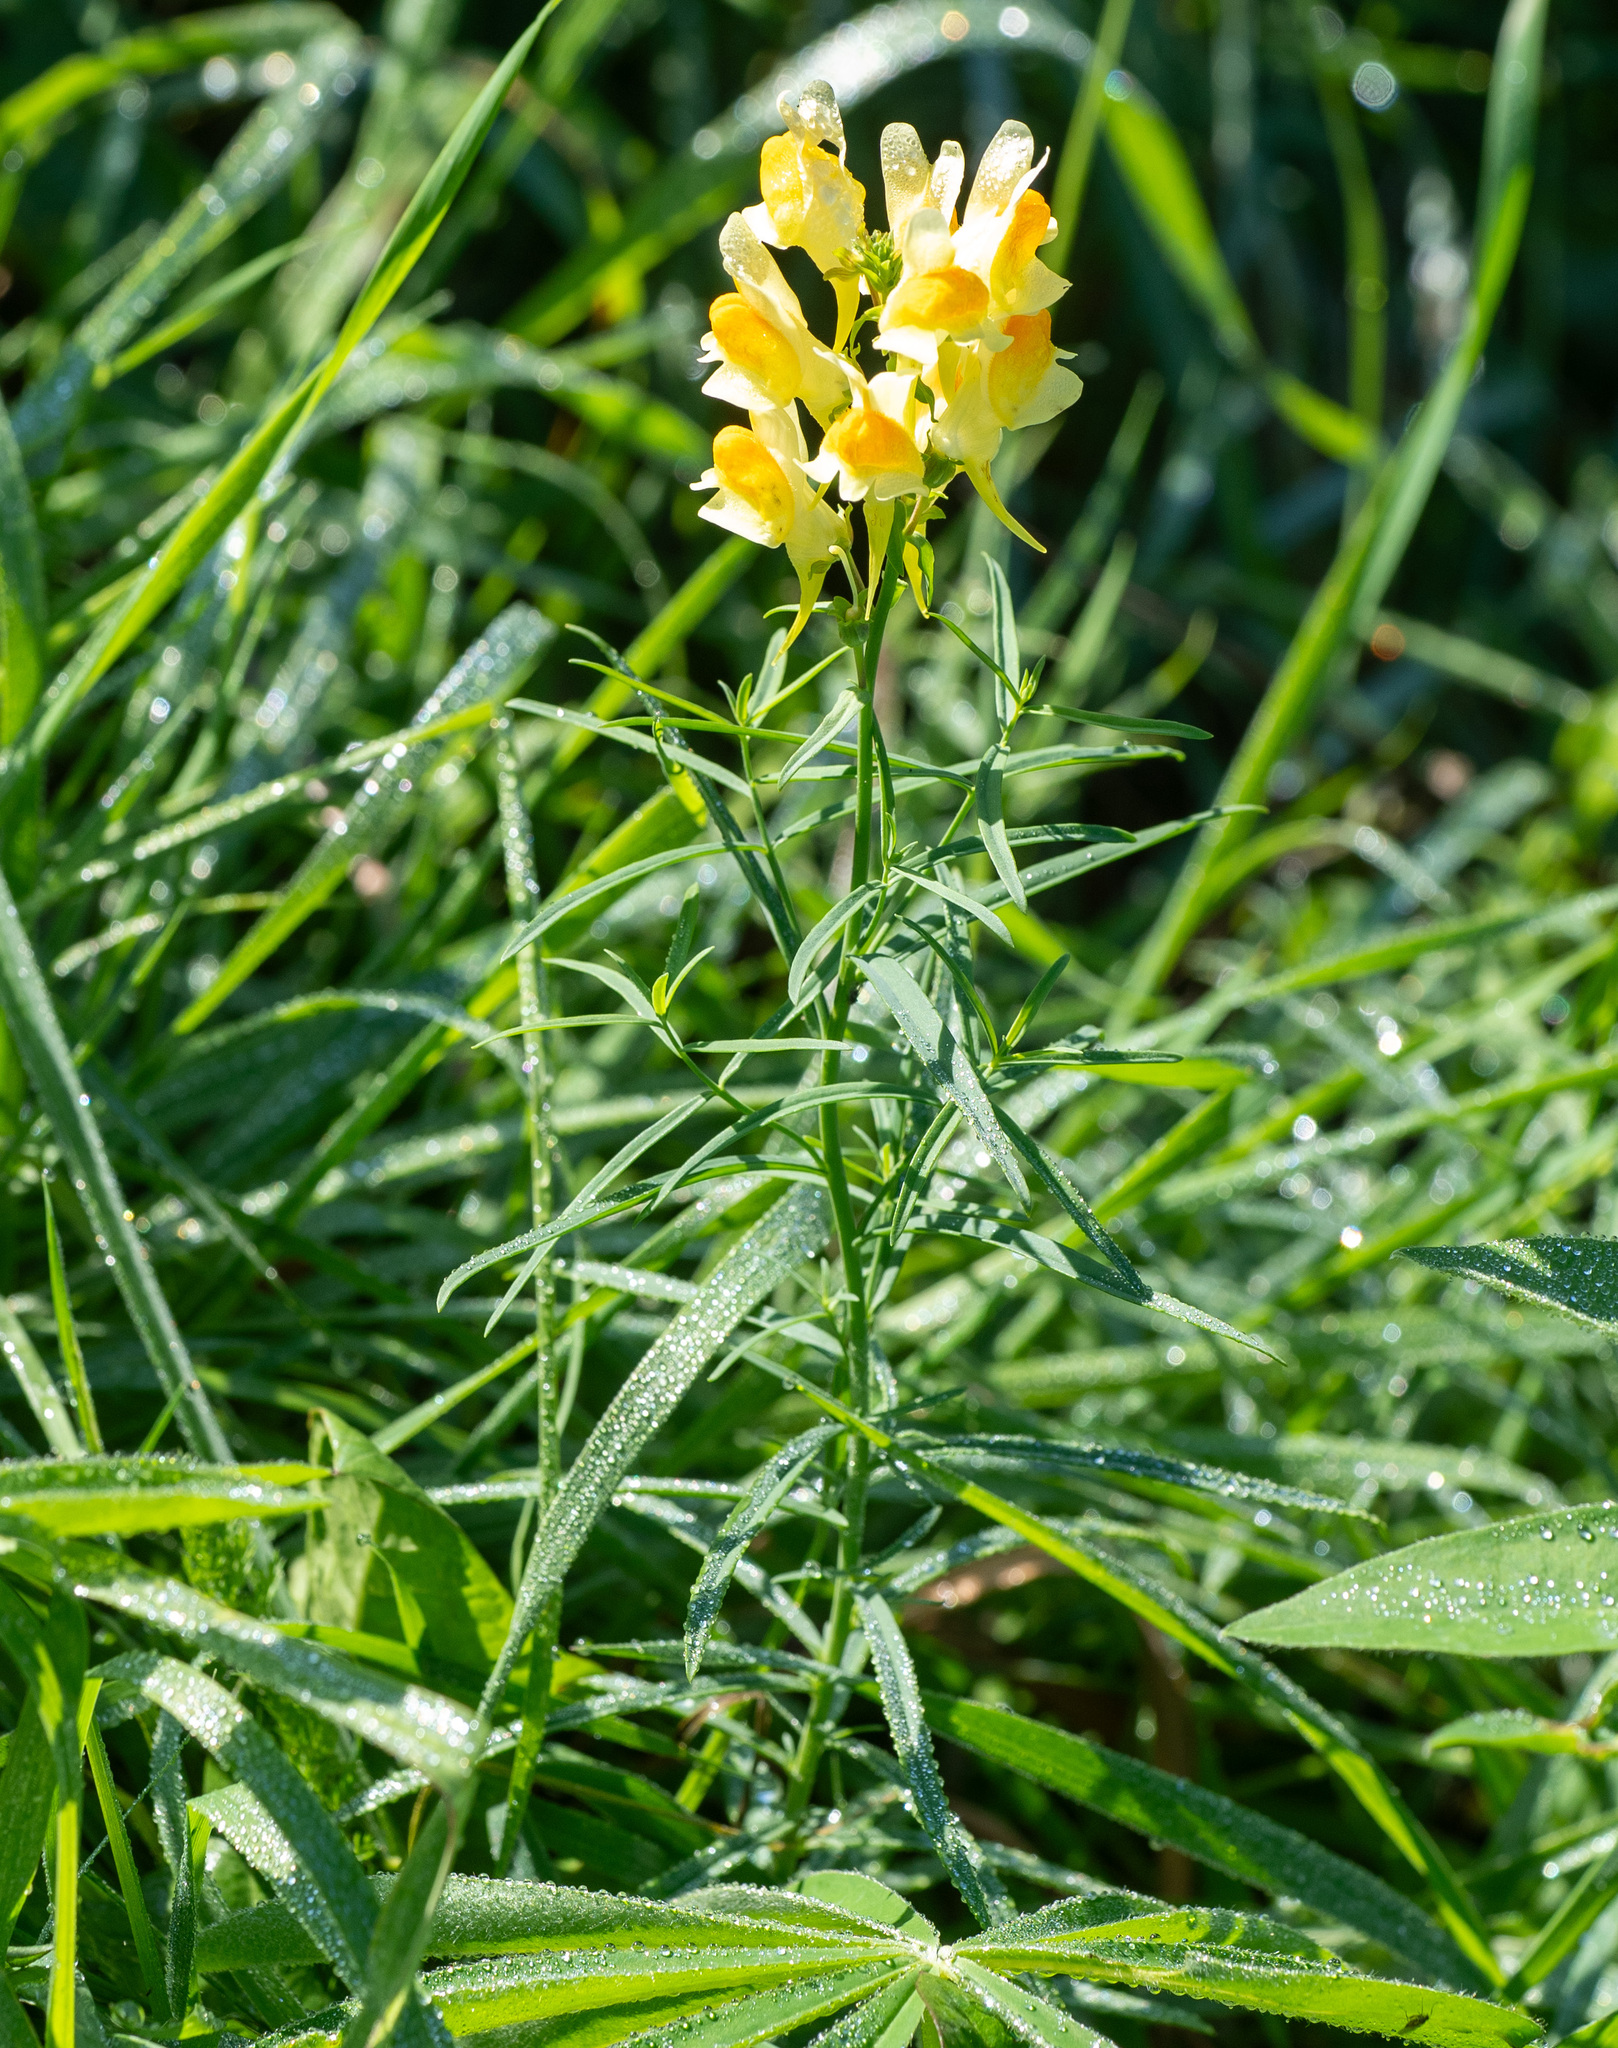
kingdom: Plantae
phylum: Tracheophyta
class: Magnoliopsida
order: Lamiales
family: Plantaginaceae
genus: Linaria
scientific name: Linaria vulgaris
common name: Butter and eggs
